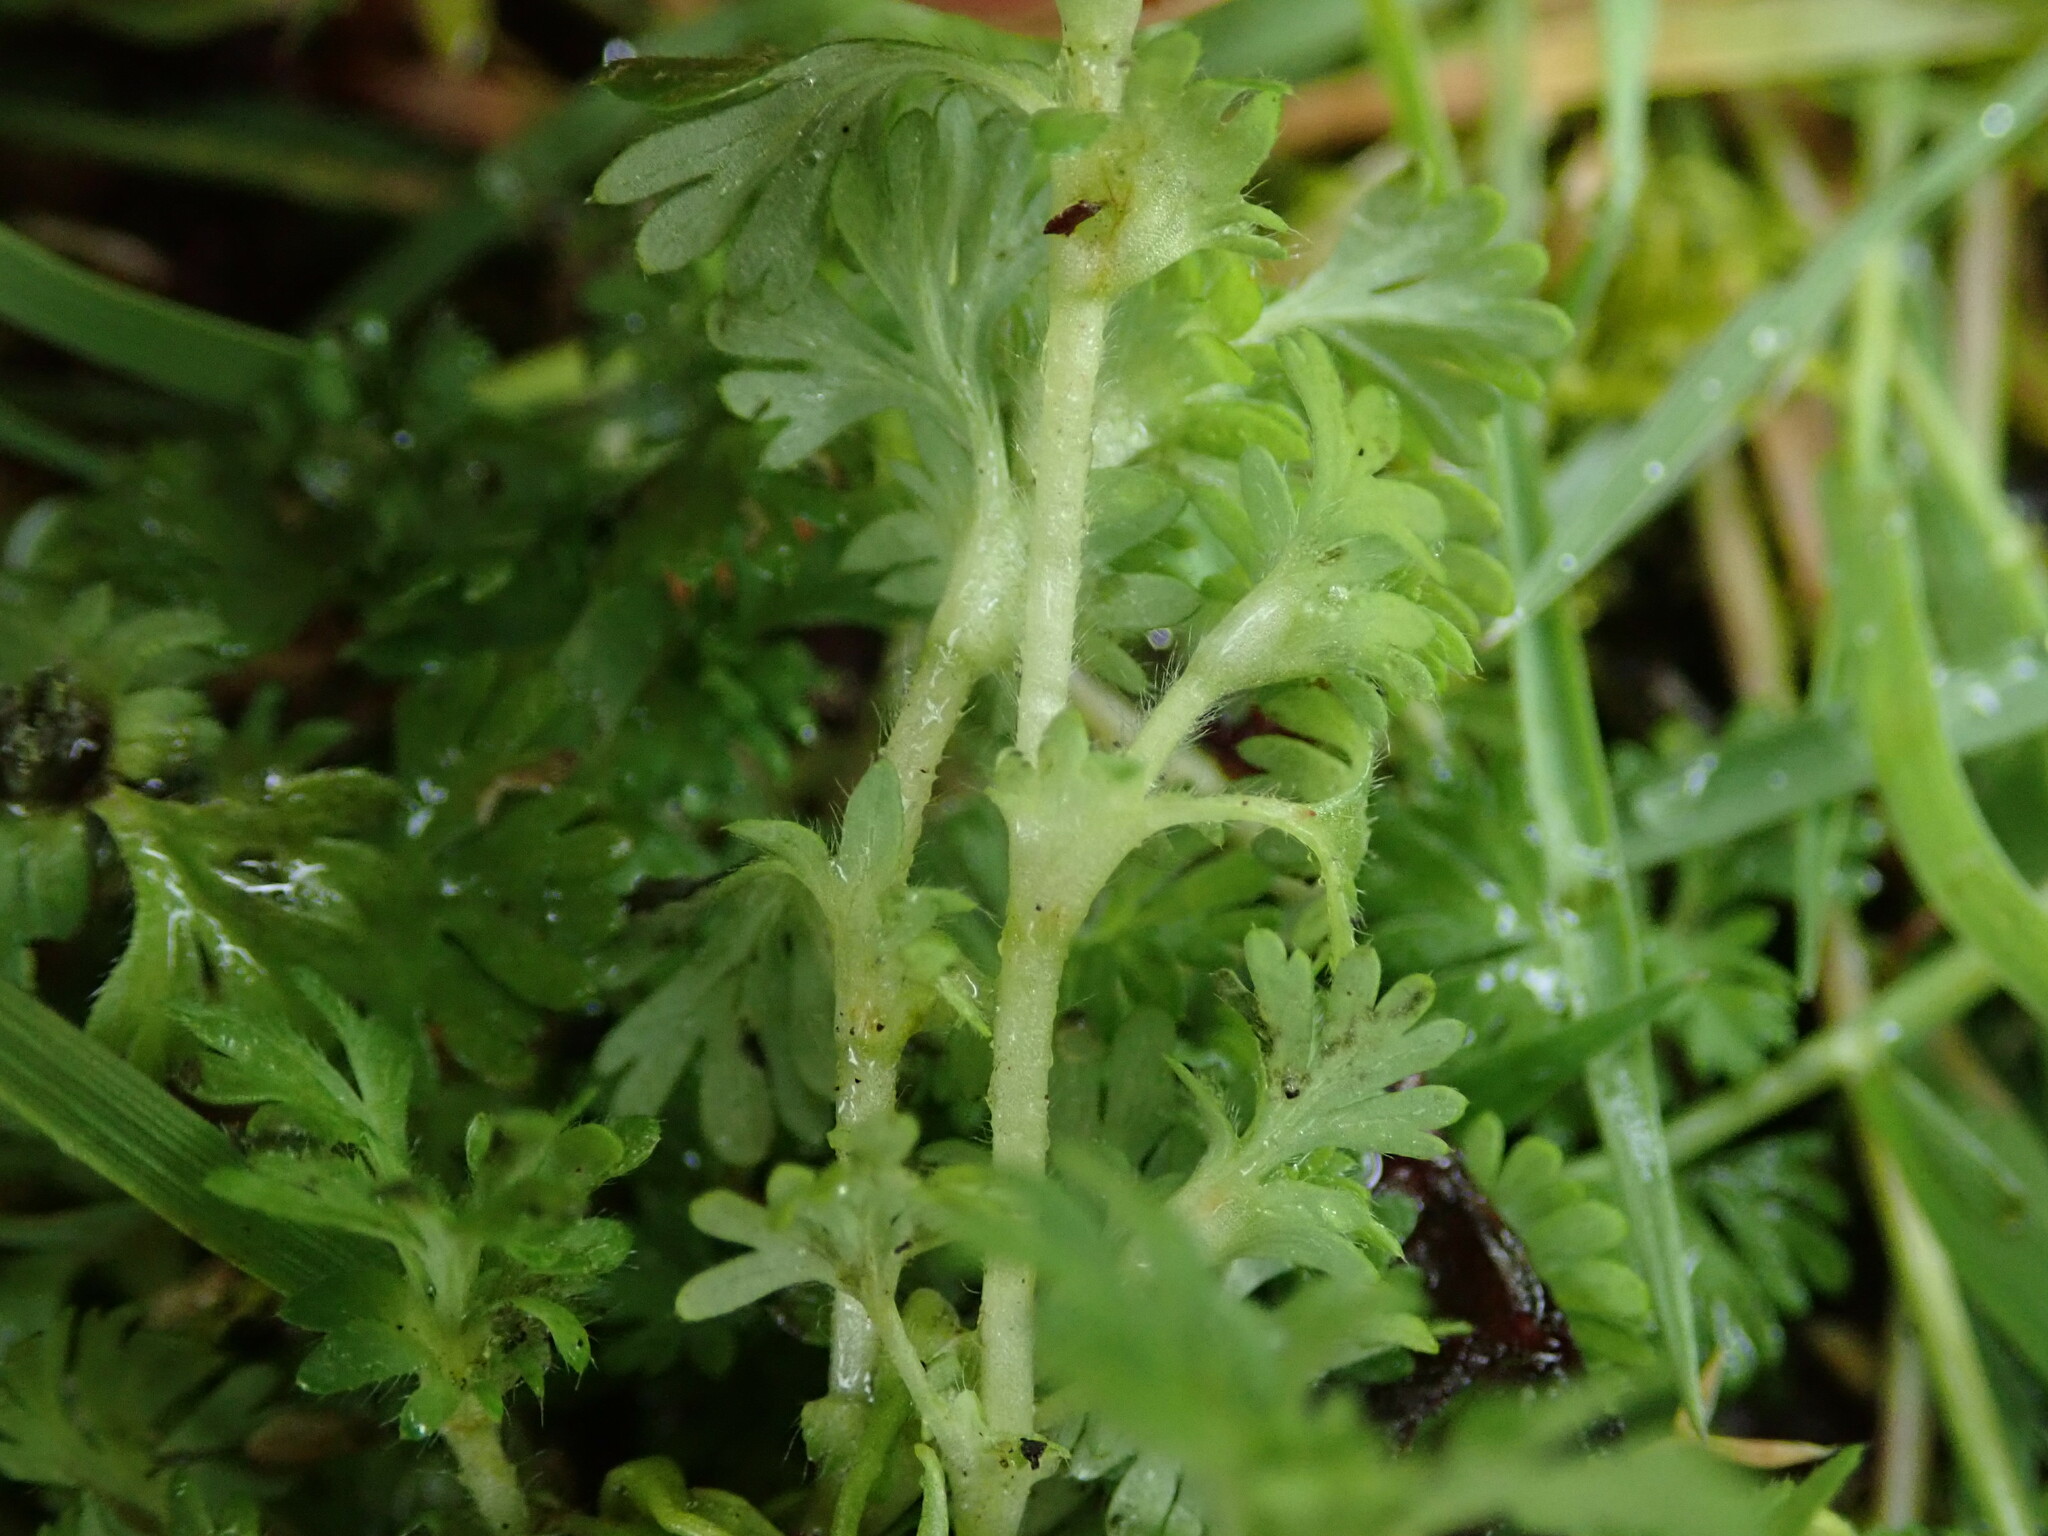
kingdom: Plantae
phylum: Tracheophyta
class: Magnoliopsida
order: Rosales
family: Rosaceae
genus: Aphanes
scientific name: Aphanes australis
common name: Slender parsley-piert
